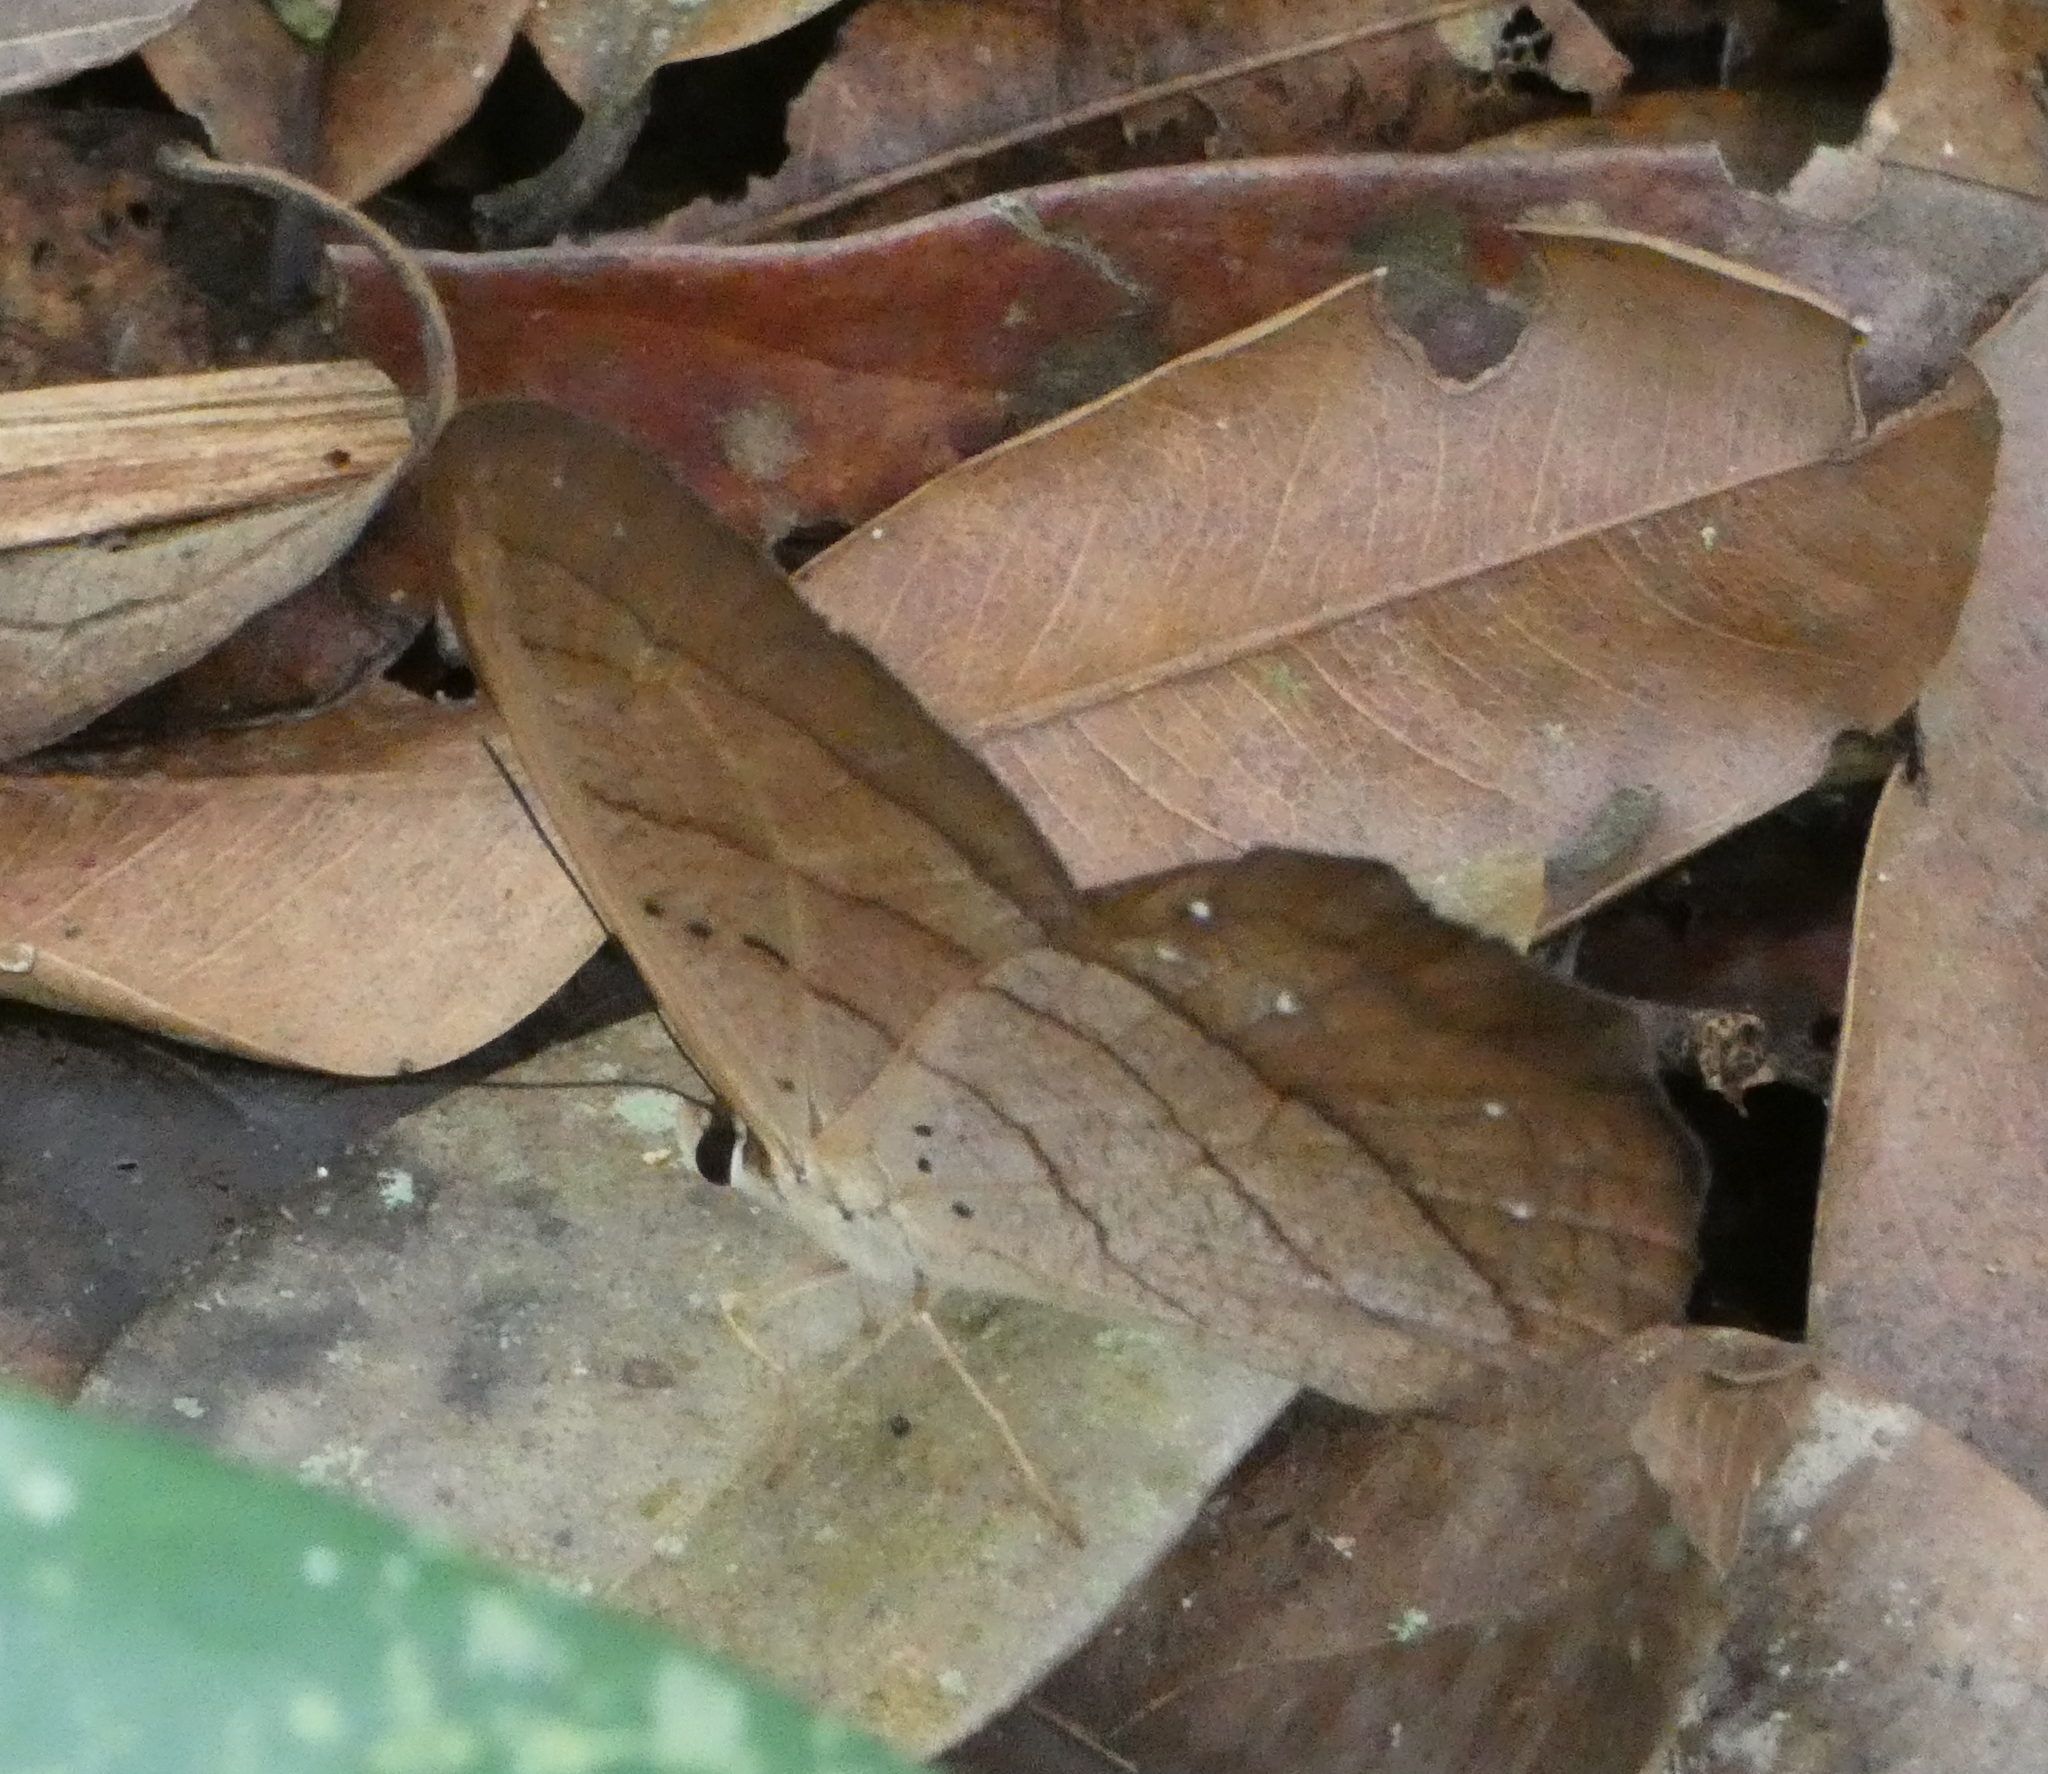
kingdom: Animalia
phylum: Arthropoda
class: Insecta
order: Lepidoptera
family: Nymphalidae
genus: Pierella
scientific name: Pierella kesselringi
